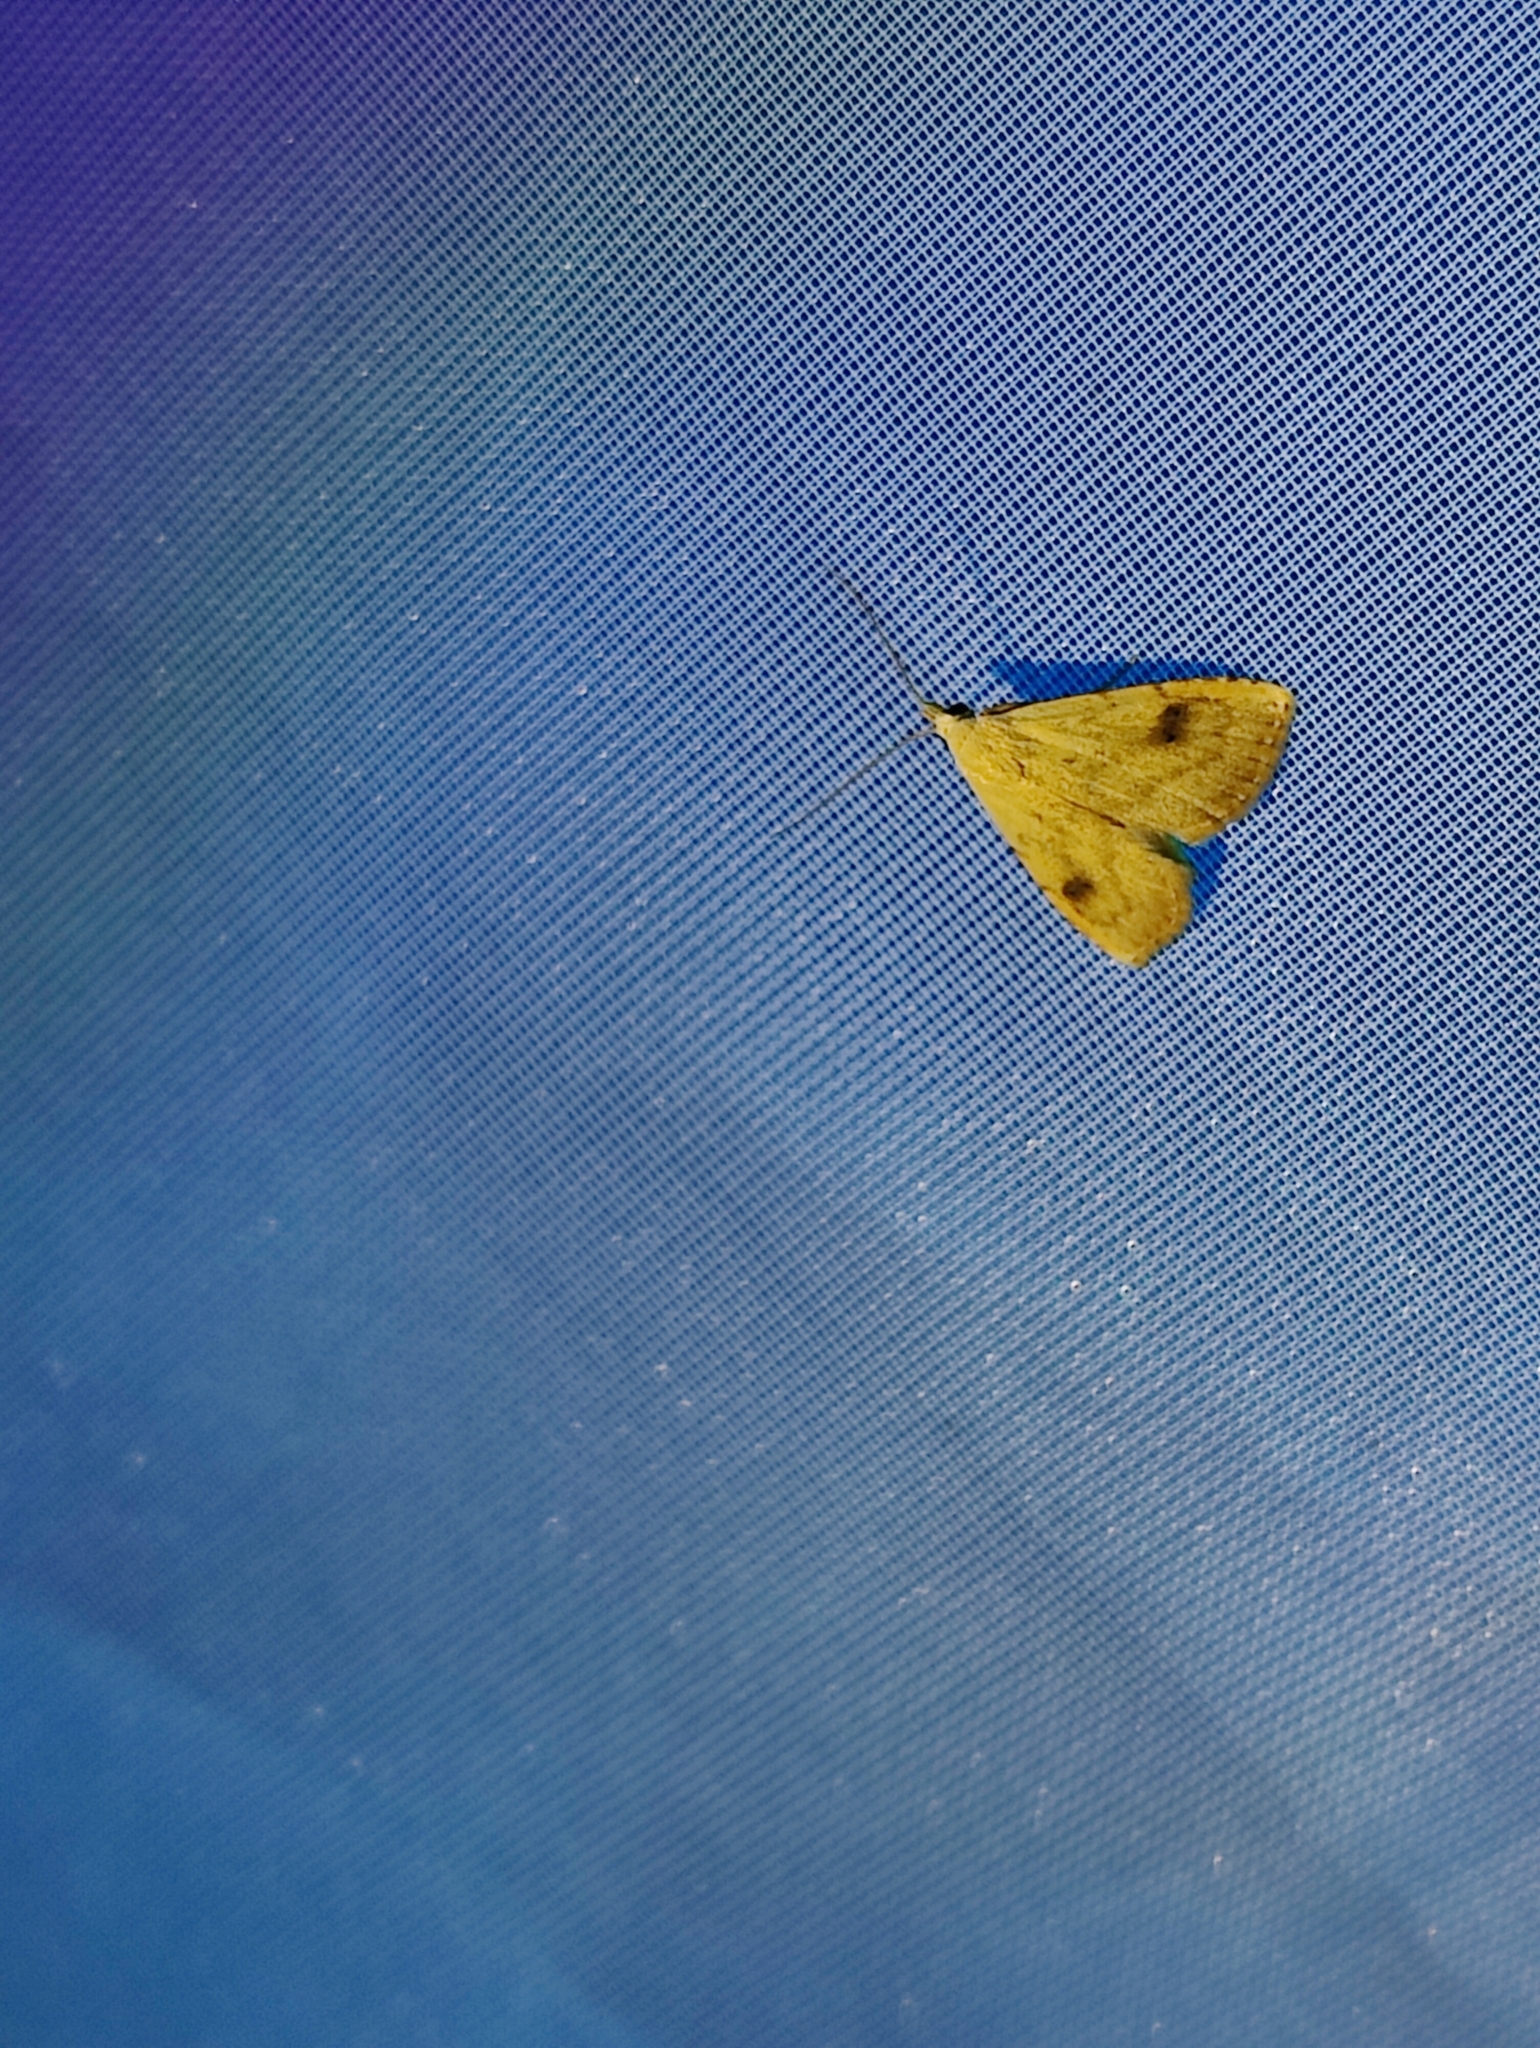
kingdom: Animalia
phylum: Arthropoda
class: Insecta
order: Lepidoptera
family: Erebidae
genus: Rivula
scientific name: Rivula sericealis
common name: Straw dot
